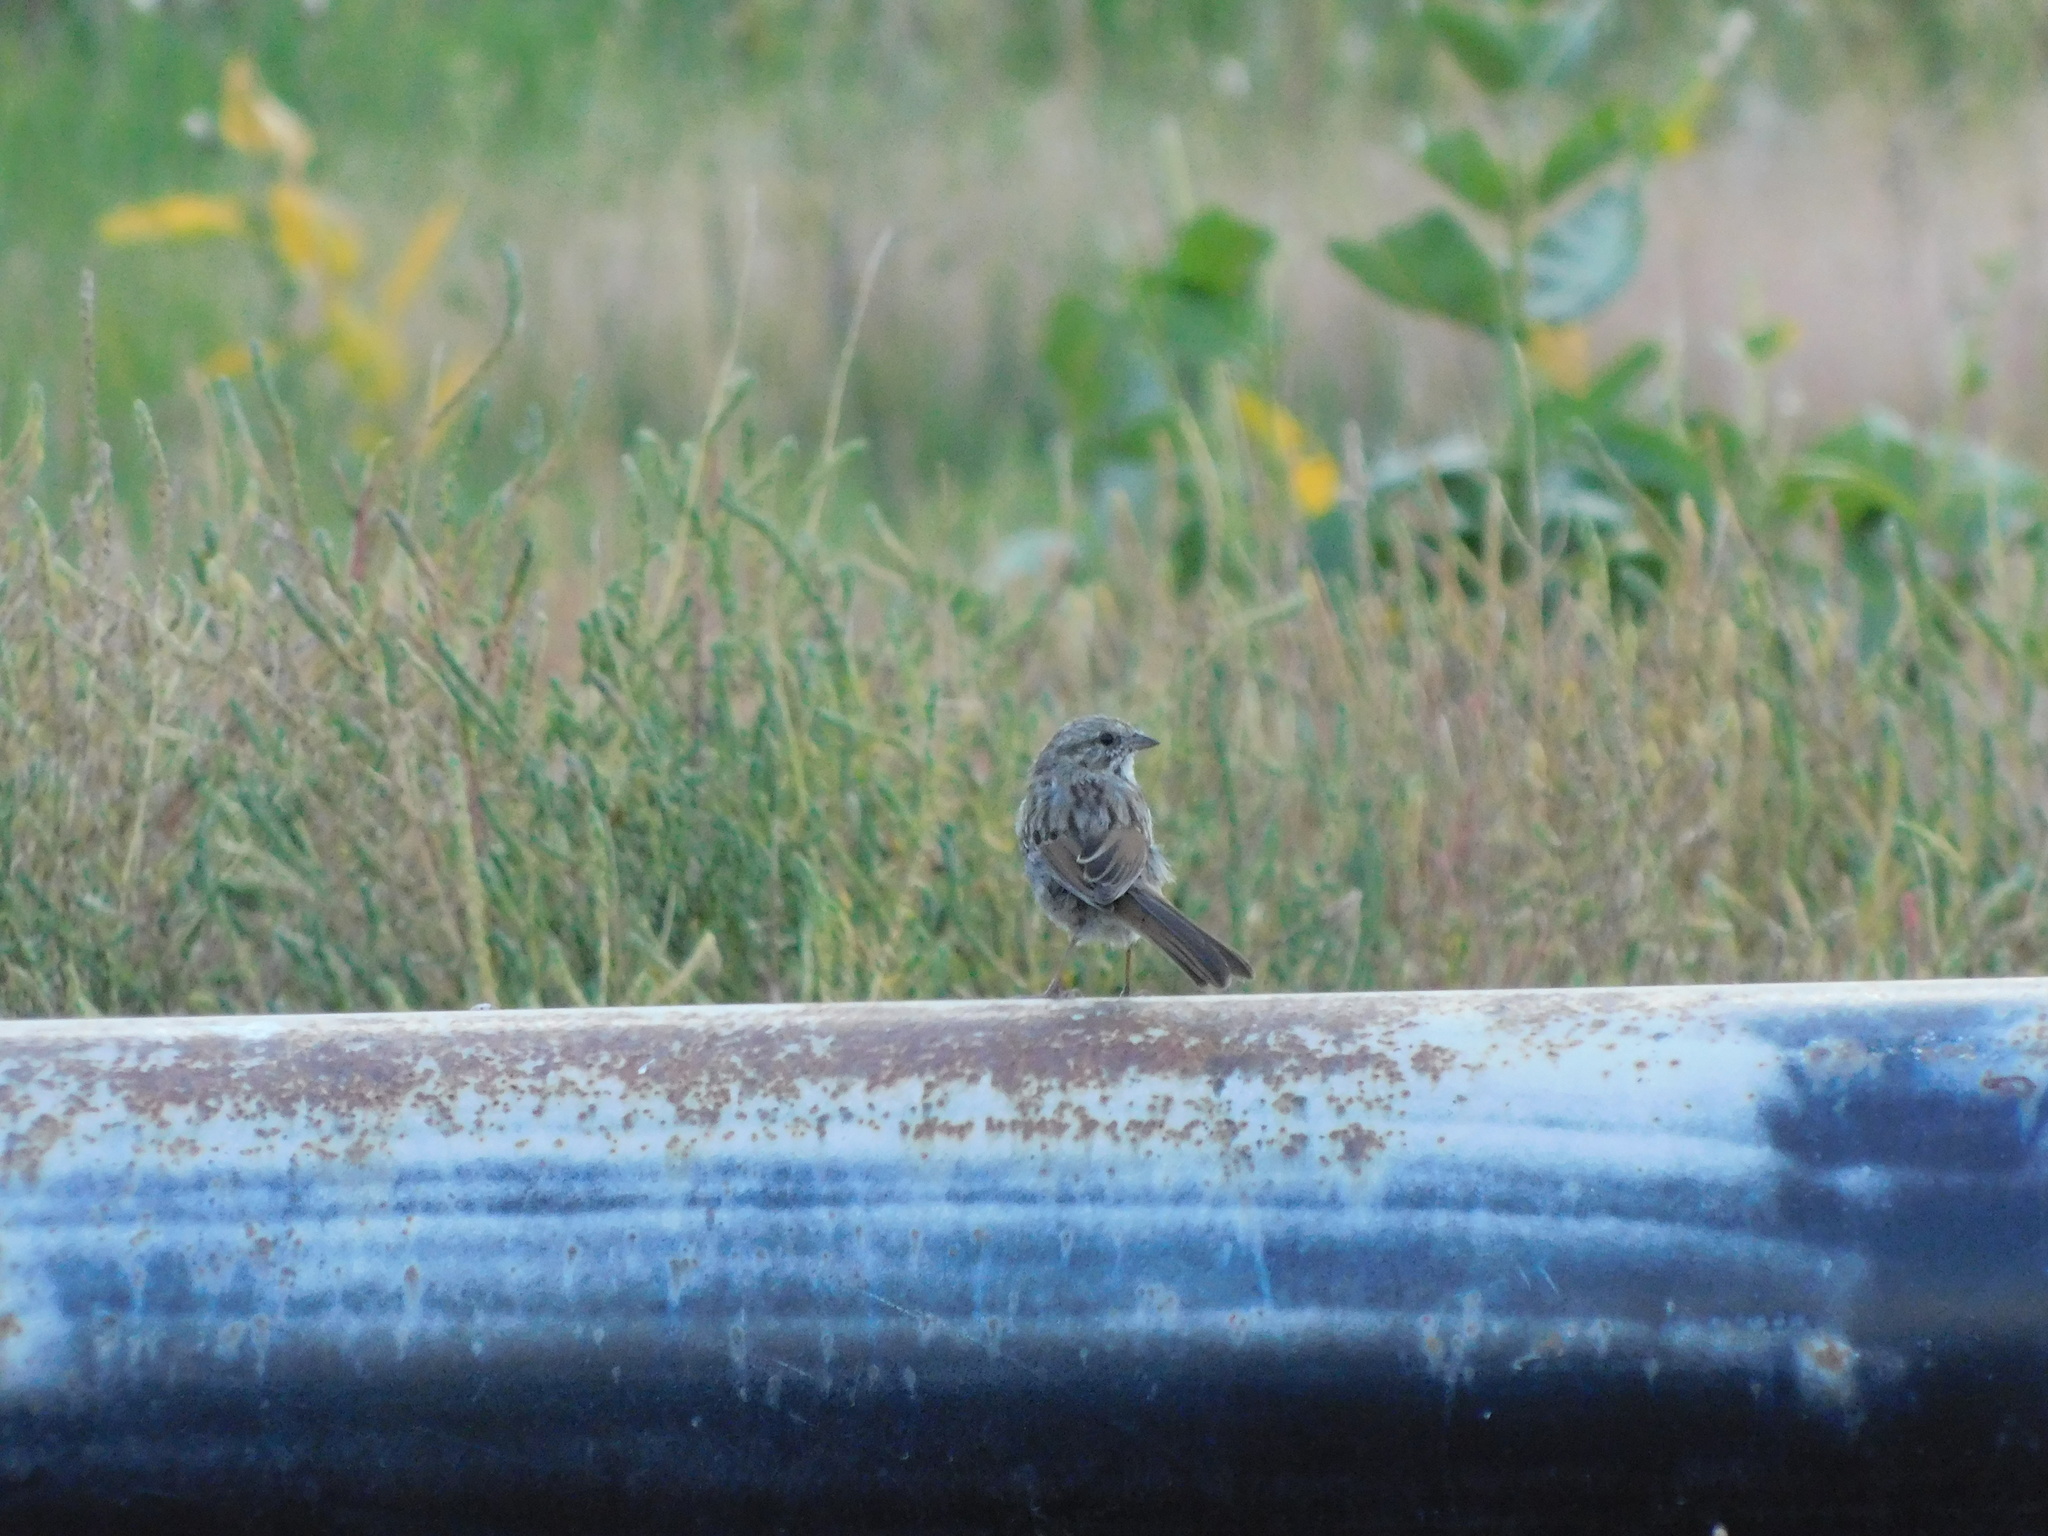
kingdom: Animalia
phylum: Chordata
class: Aves
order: Passeriformes
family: Passerellidae
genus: Melospiza
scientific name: Melospiza melodia
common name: Song sparrow
